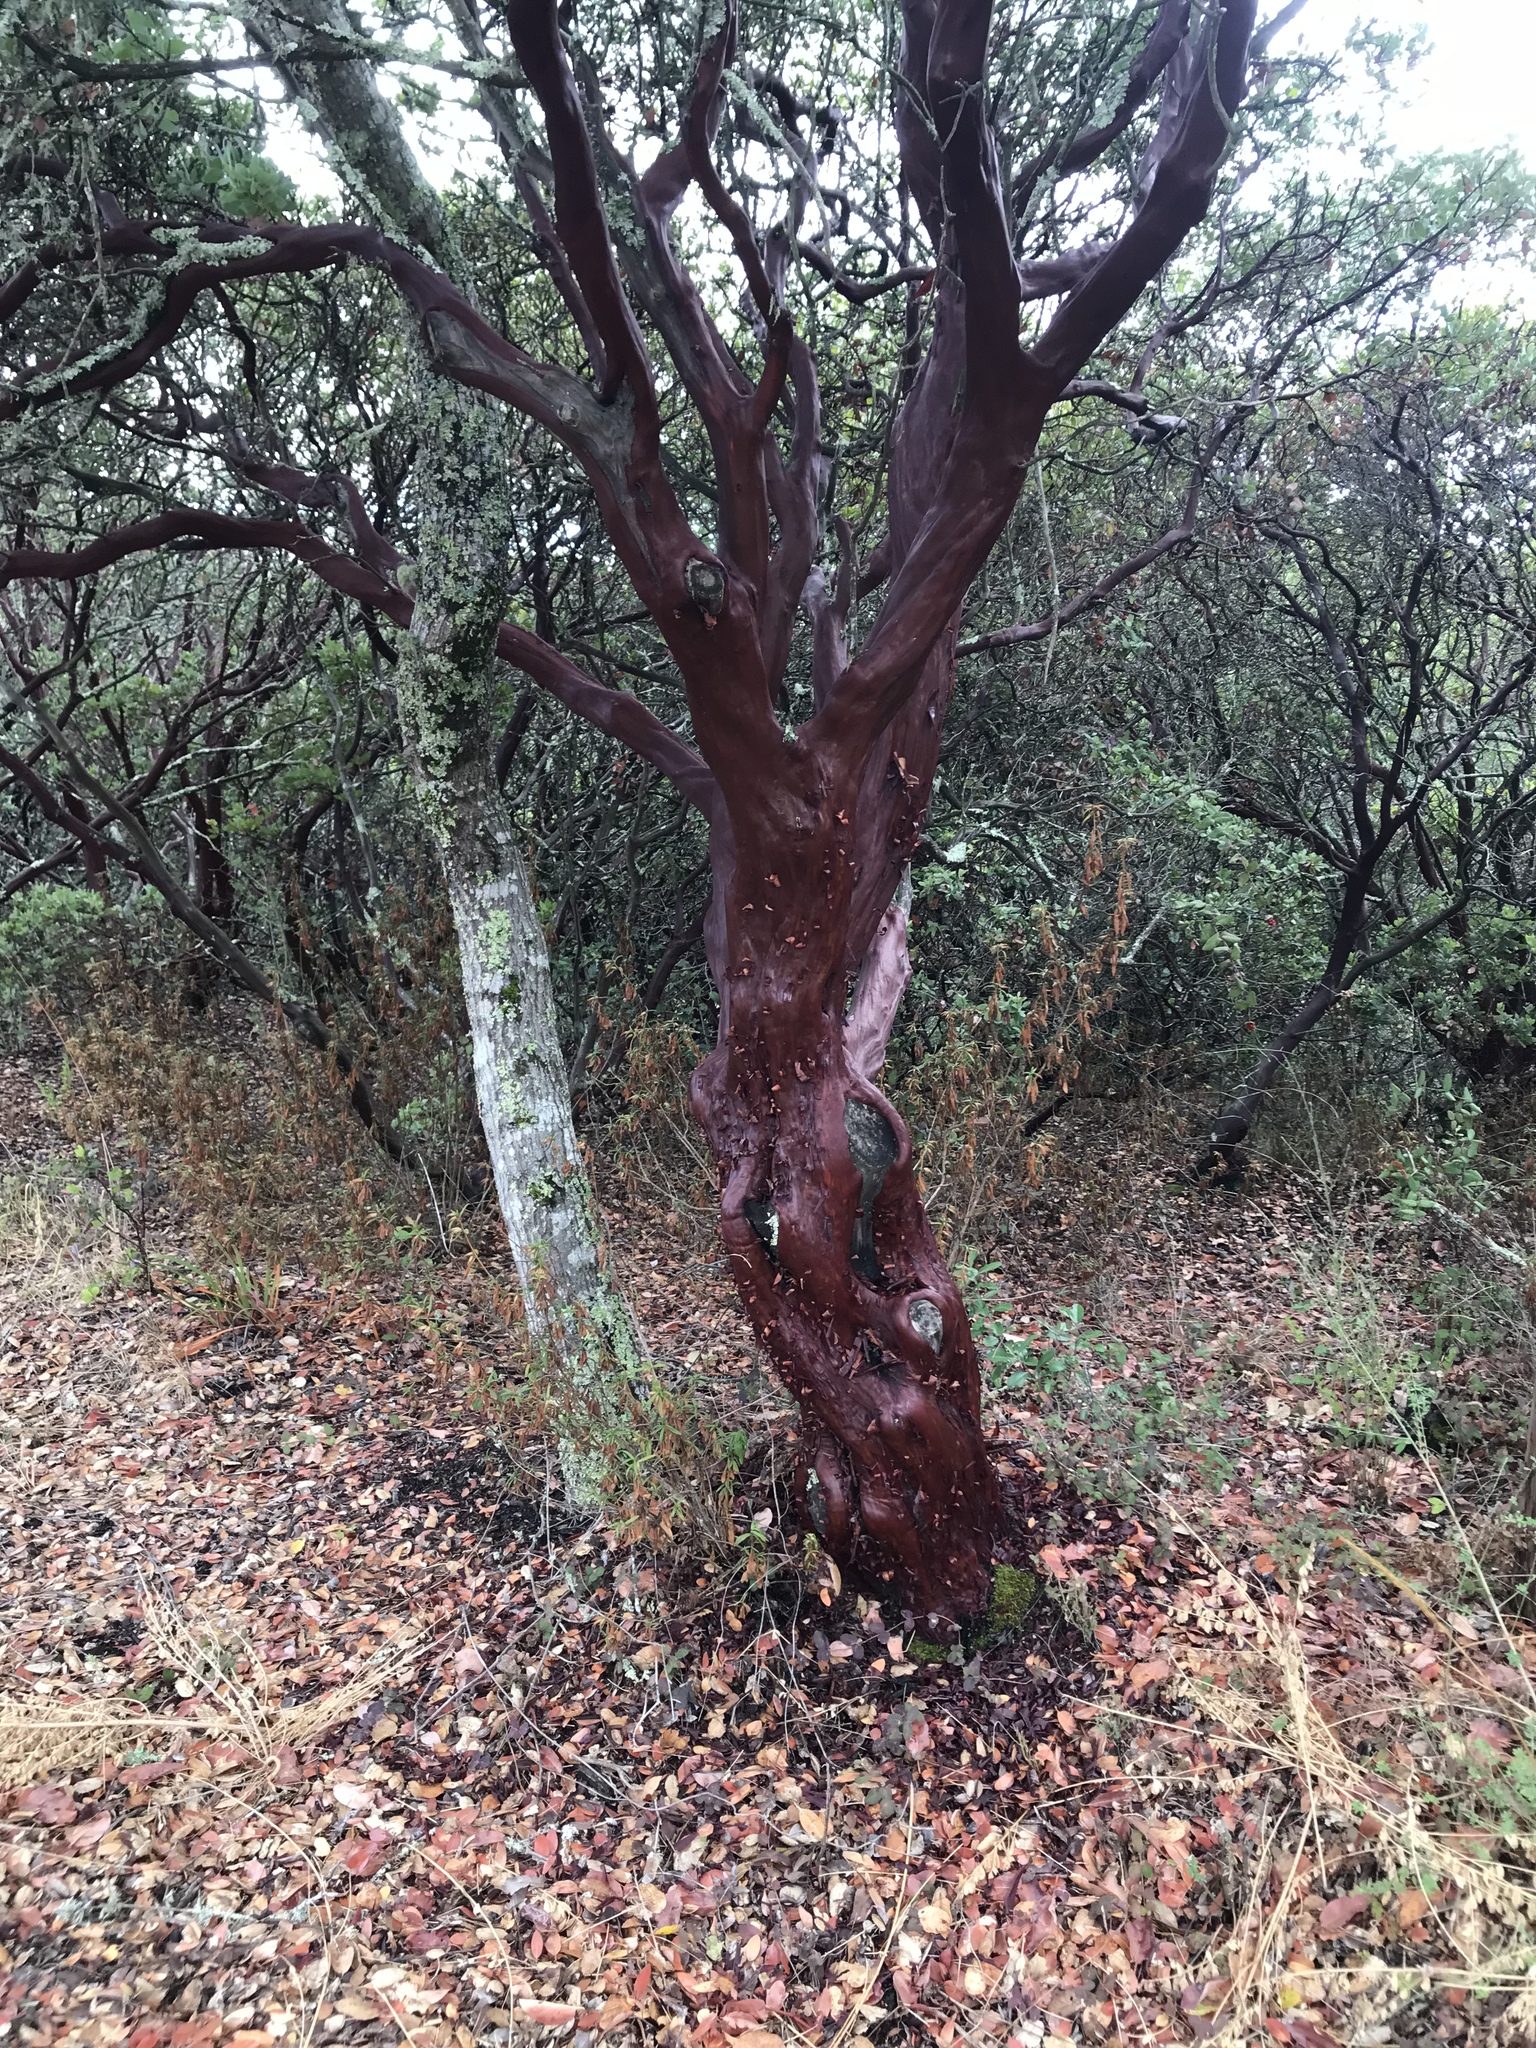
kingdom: Plantae
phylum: Tracheophyta
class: Magnoliopsida
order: Ericales
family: Ericaceae
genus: Arctostaphylos
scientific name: Arctostaphylos manzanita
